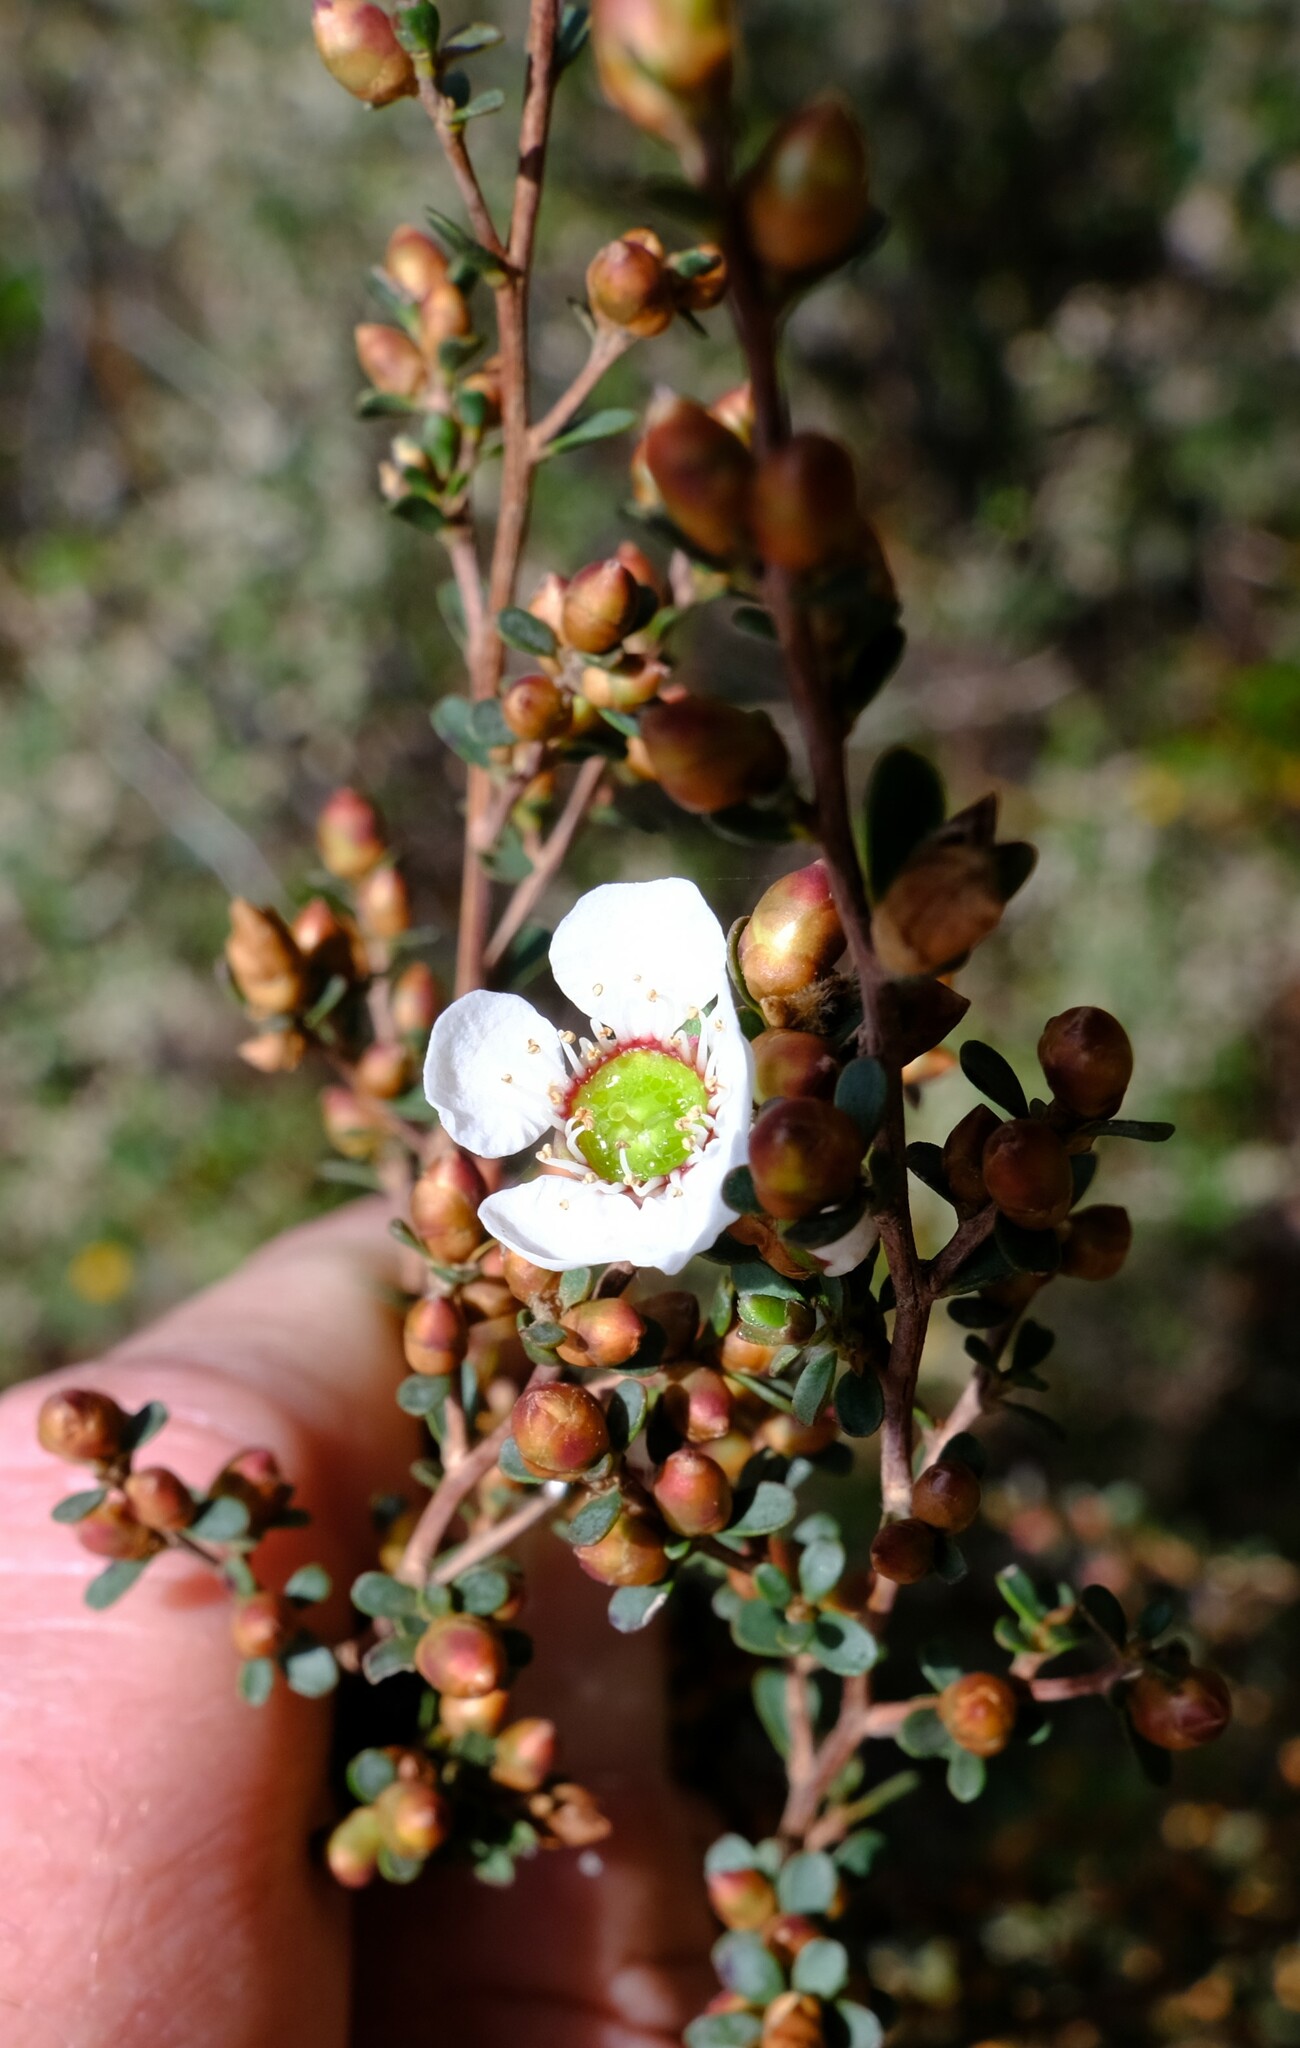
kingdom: Plantae
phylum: Tracheophyta
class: Magnoliopsida
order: Myrtales
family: Myrtaceae
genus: Leptospermum
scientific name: Leptospermum myrsinoides
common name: Heath teatree
